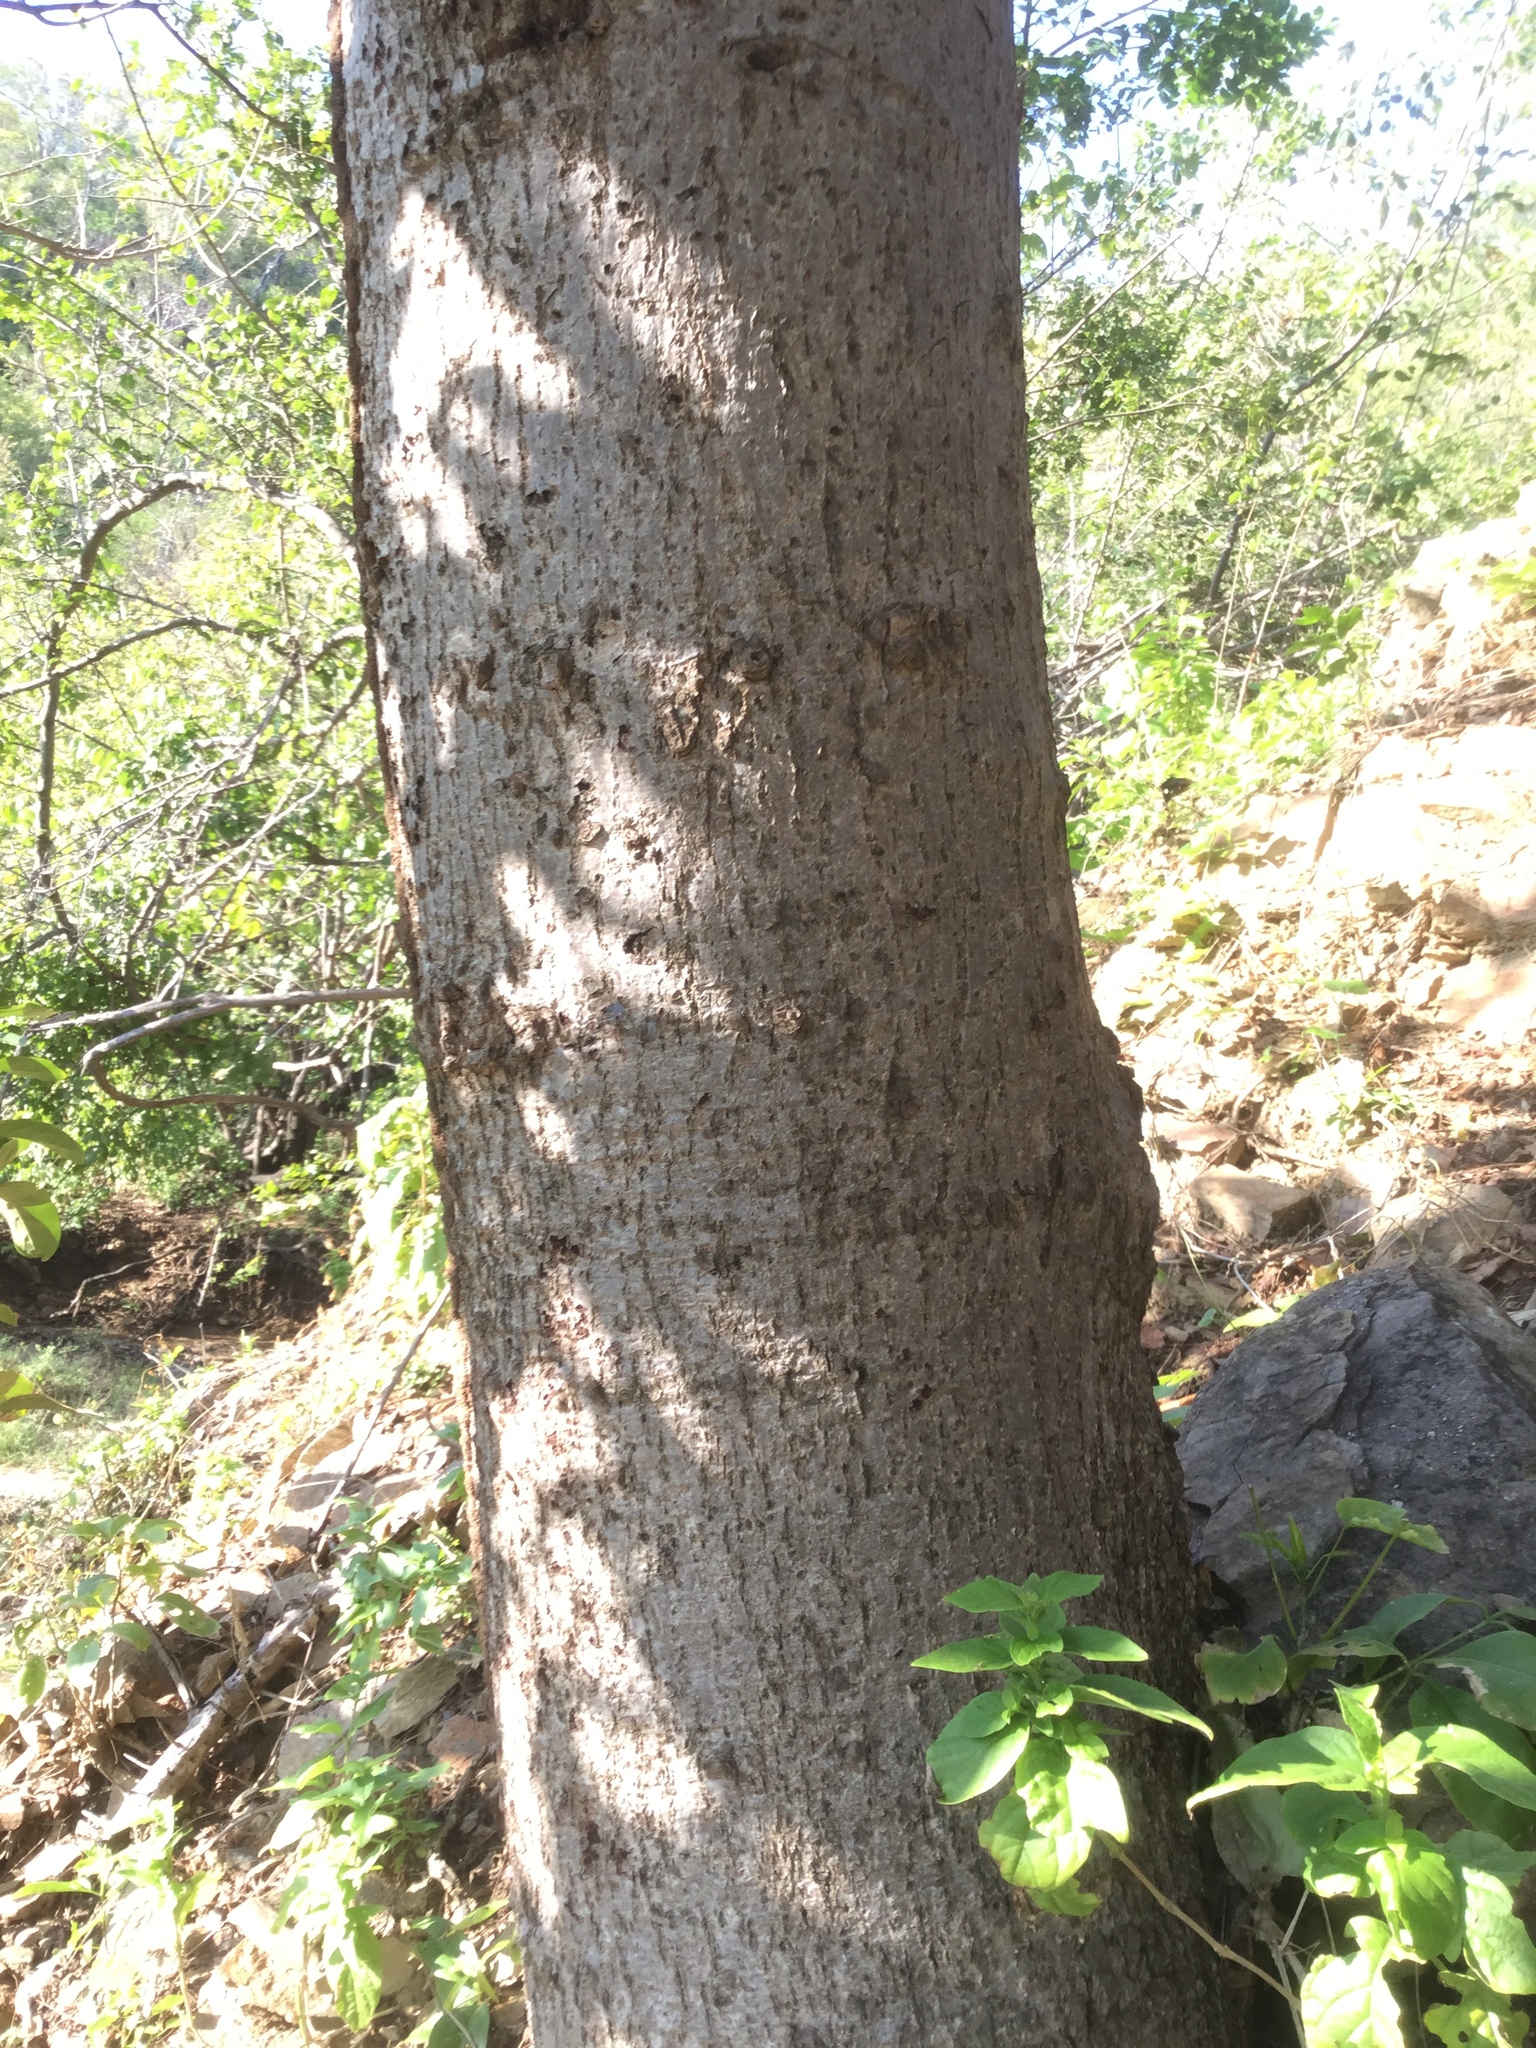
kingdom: Plantae
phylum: Tracheophyta
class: Magnoliopsida
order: Sapindales
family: Anacardiaceae
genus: Spondias
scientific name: Spondias purpurea
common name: Purple mombin
